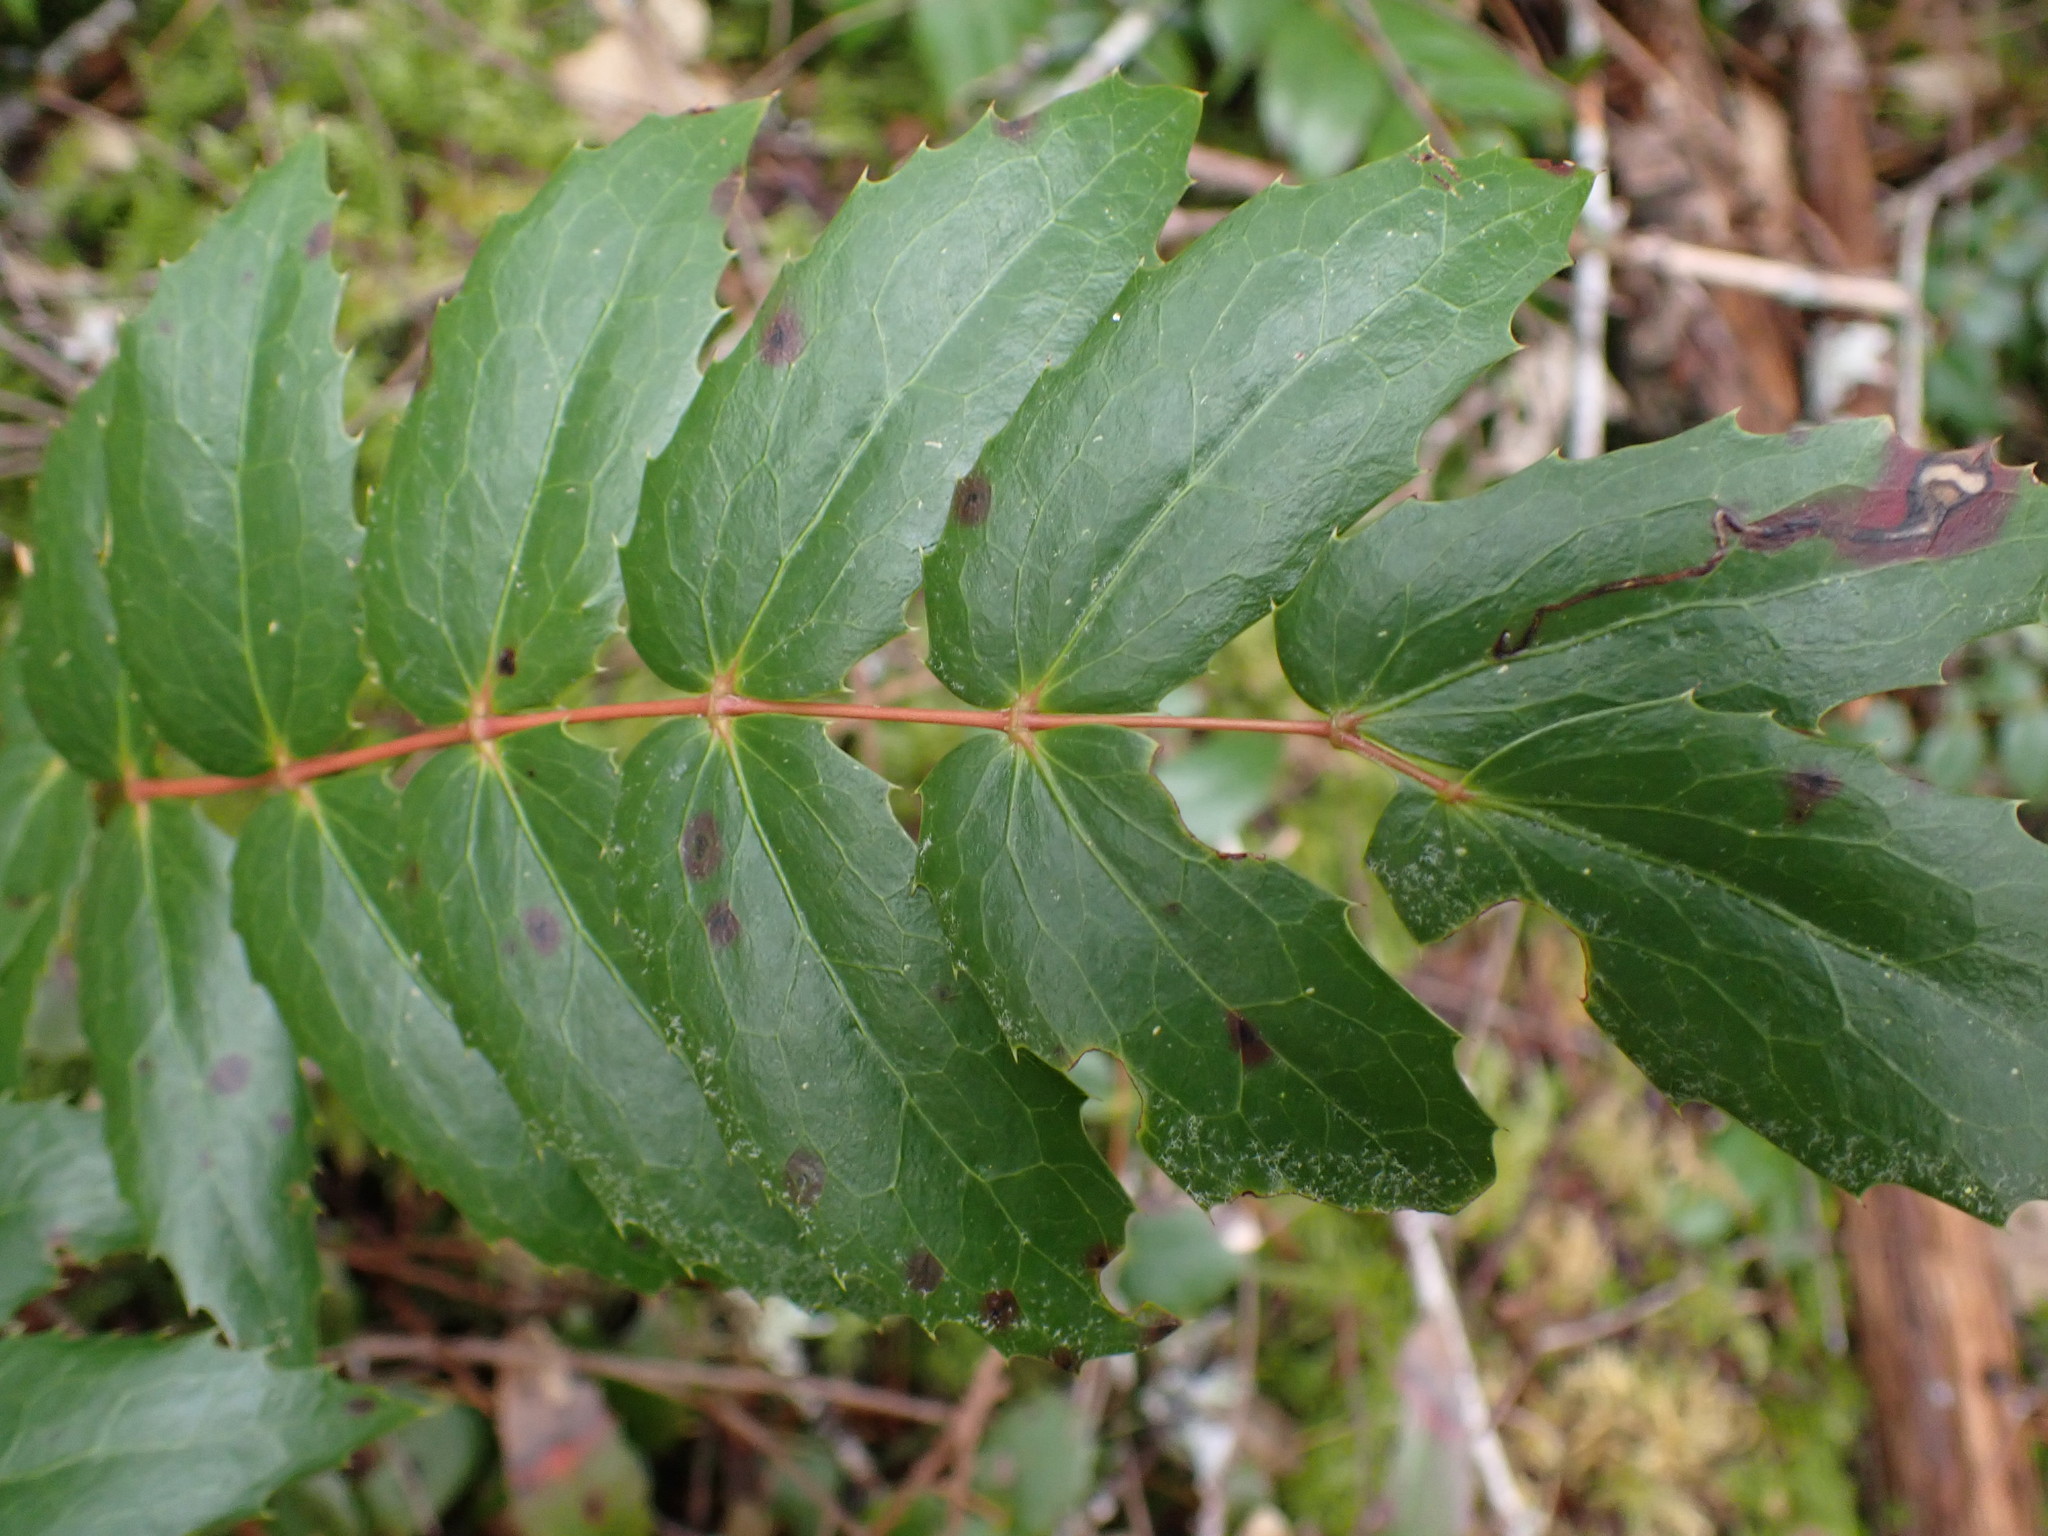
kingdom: Plantae
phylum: Tracheophyta
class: Magnoliopsida
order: Ranunculales
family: Berberidaceae
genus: Mahonia
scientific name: Mahonia nervosa
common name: Cascade oregon-grape
